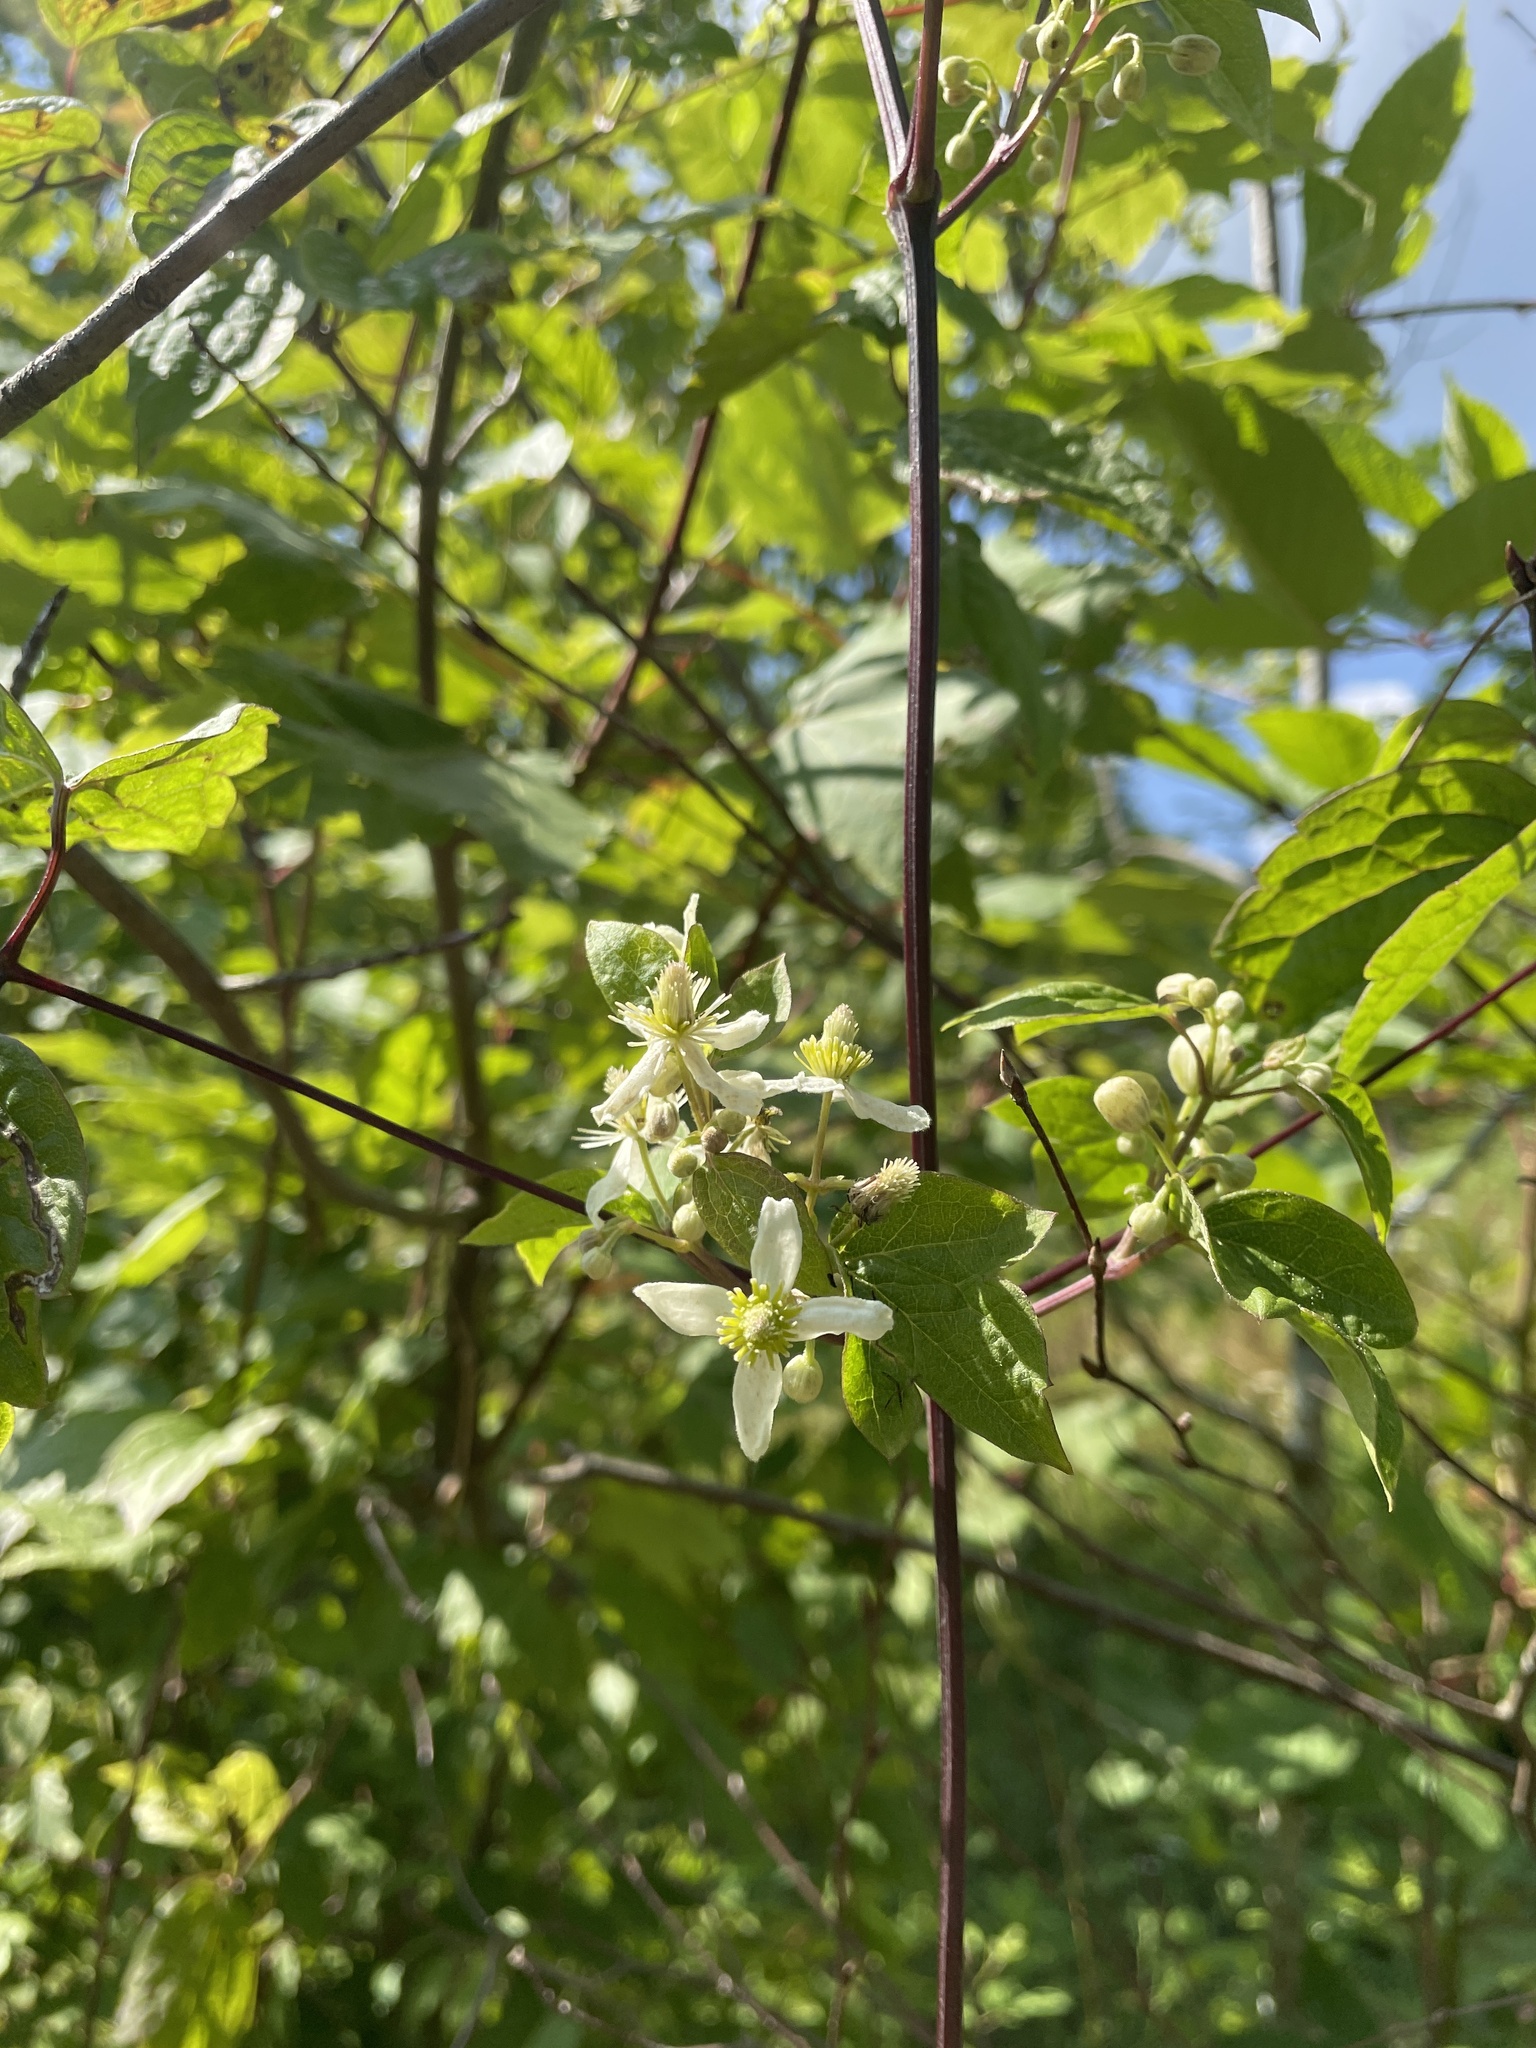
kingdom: Plantae
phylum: Tracheophyta
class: Magnoliopsida
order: Ranunculales
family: Ranunculaceae
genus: Clematis
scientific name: Clematis virginiana
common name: Virgin's-bower
